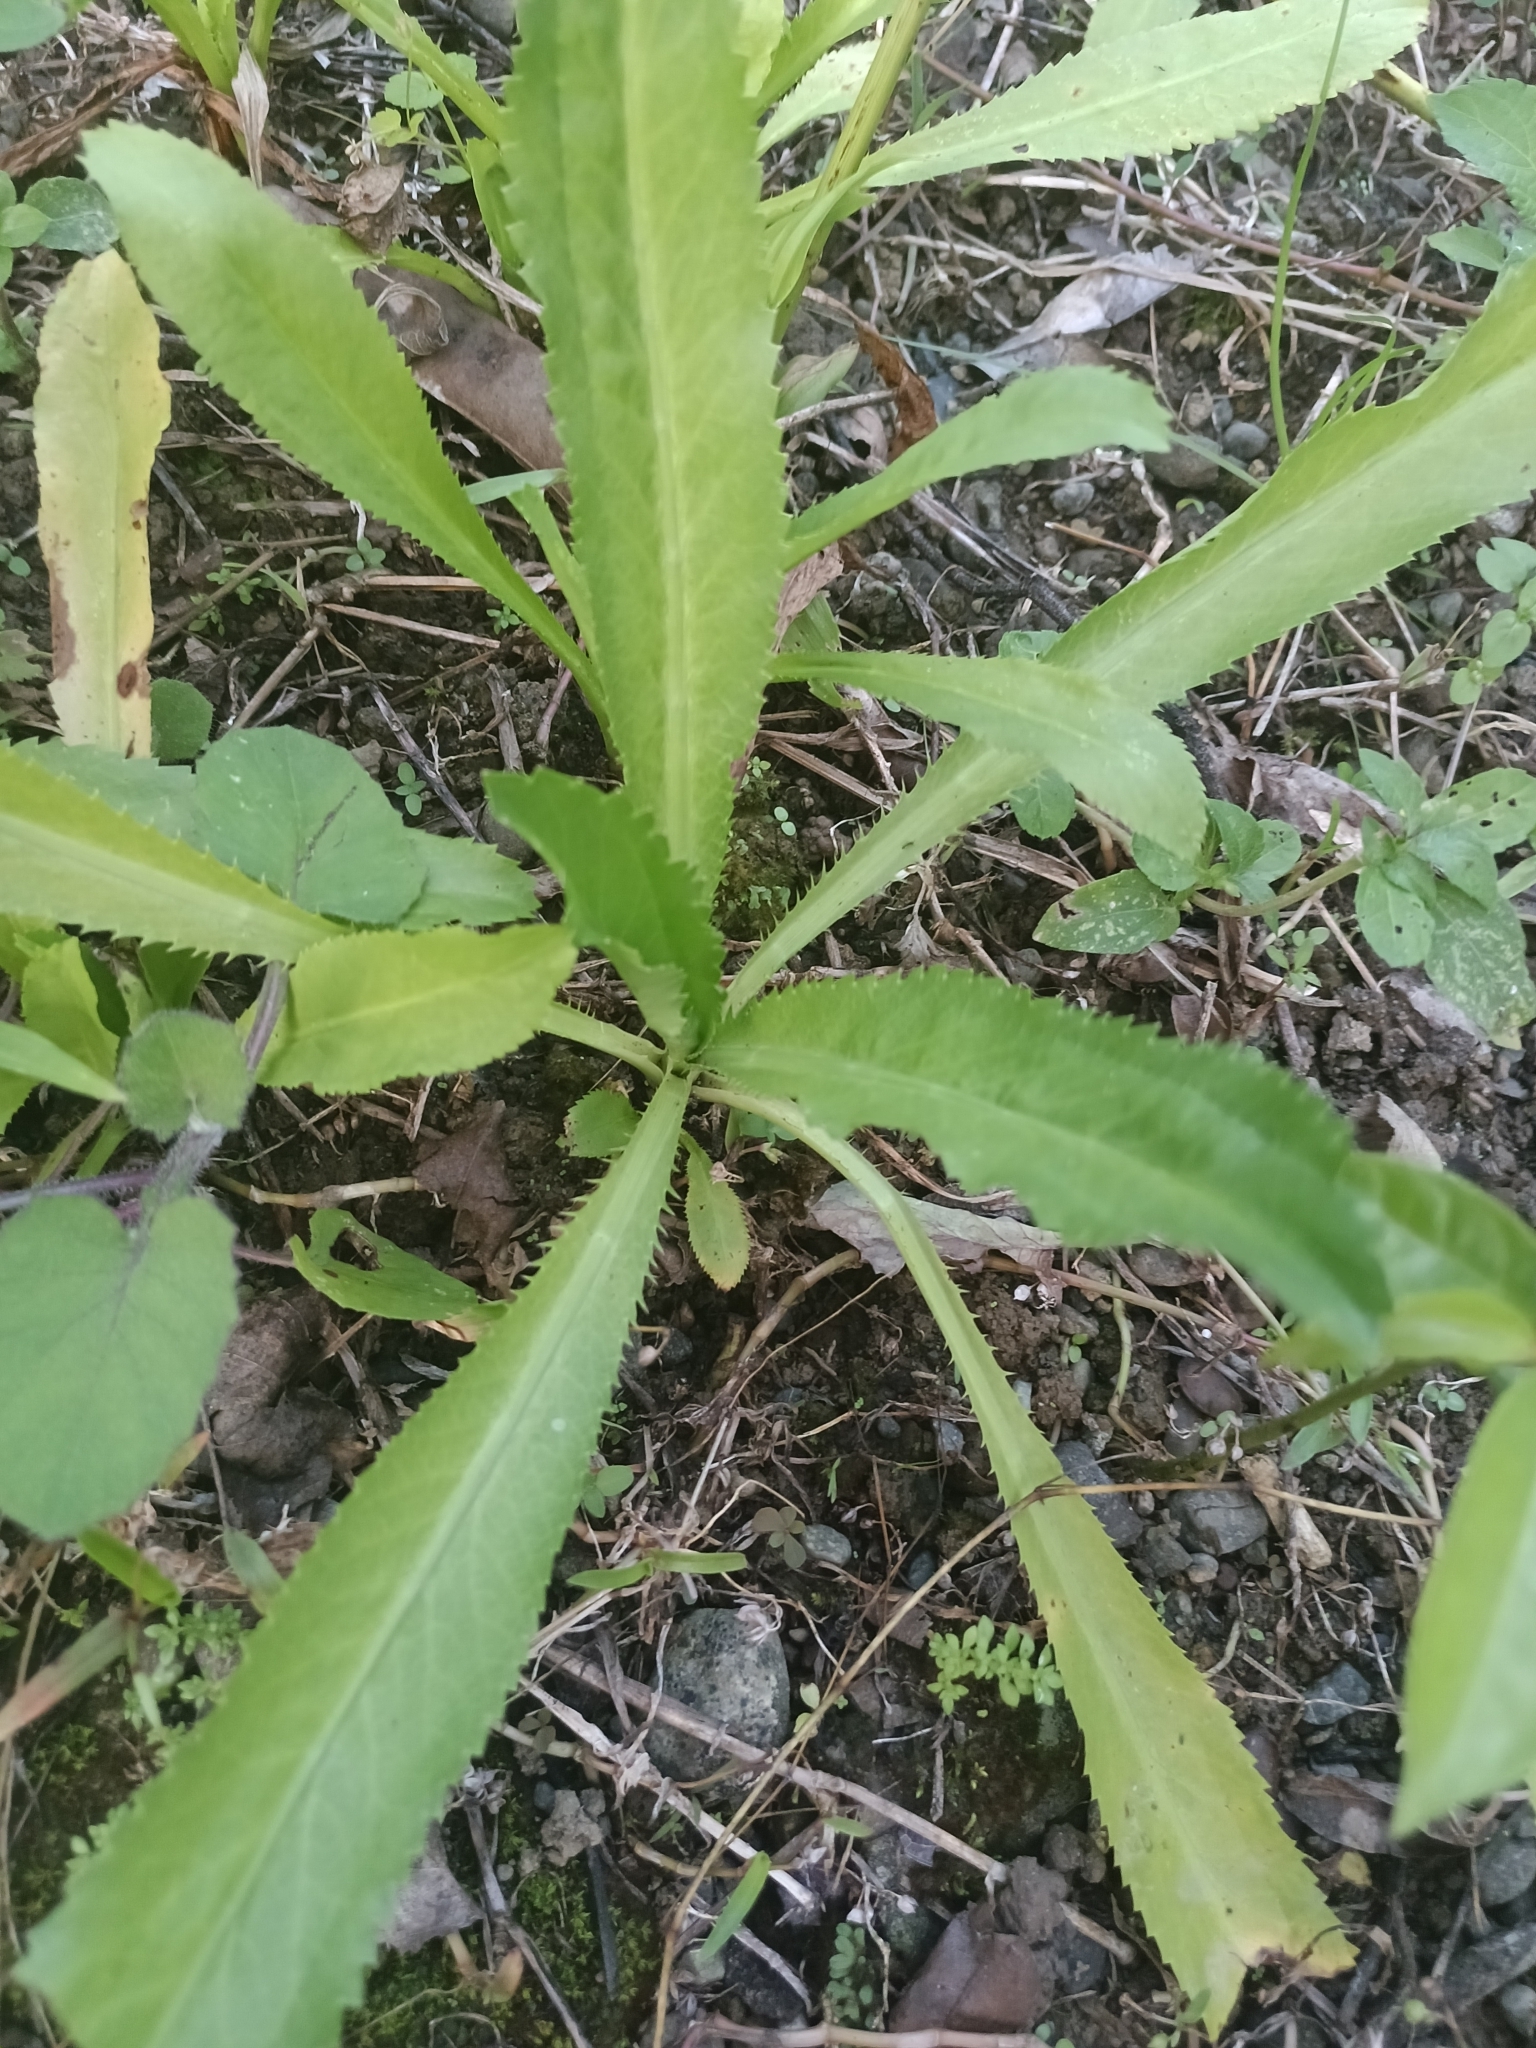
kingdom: Plantae
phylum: Tracheophyta
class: Magnoliopsida
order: Apiales
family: Apiaceae
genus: Eryngium
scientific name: Eryngium foetidum
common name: Fitweed
